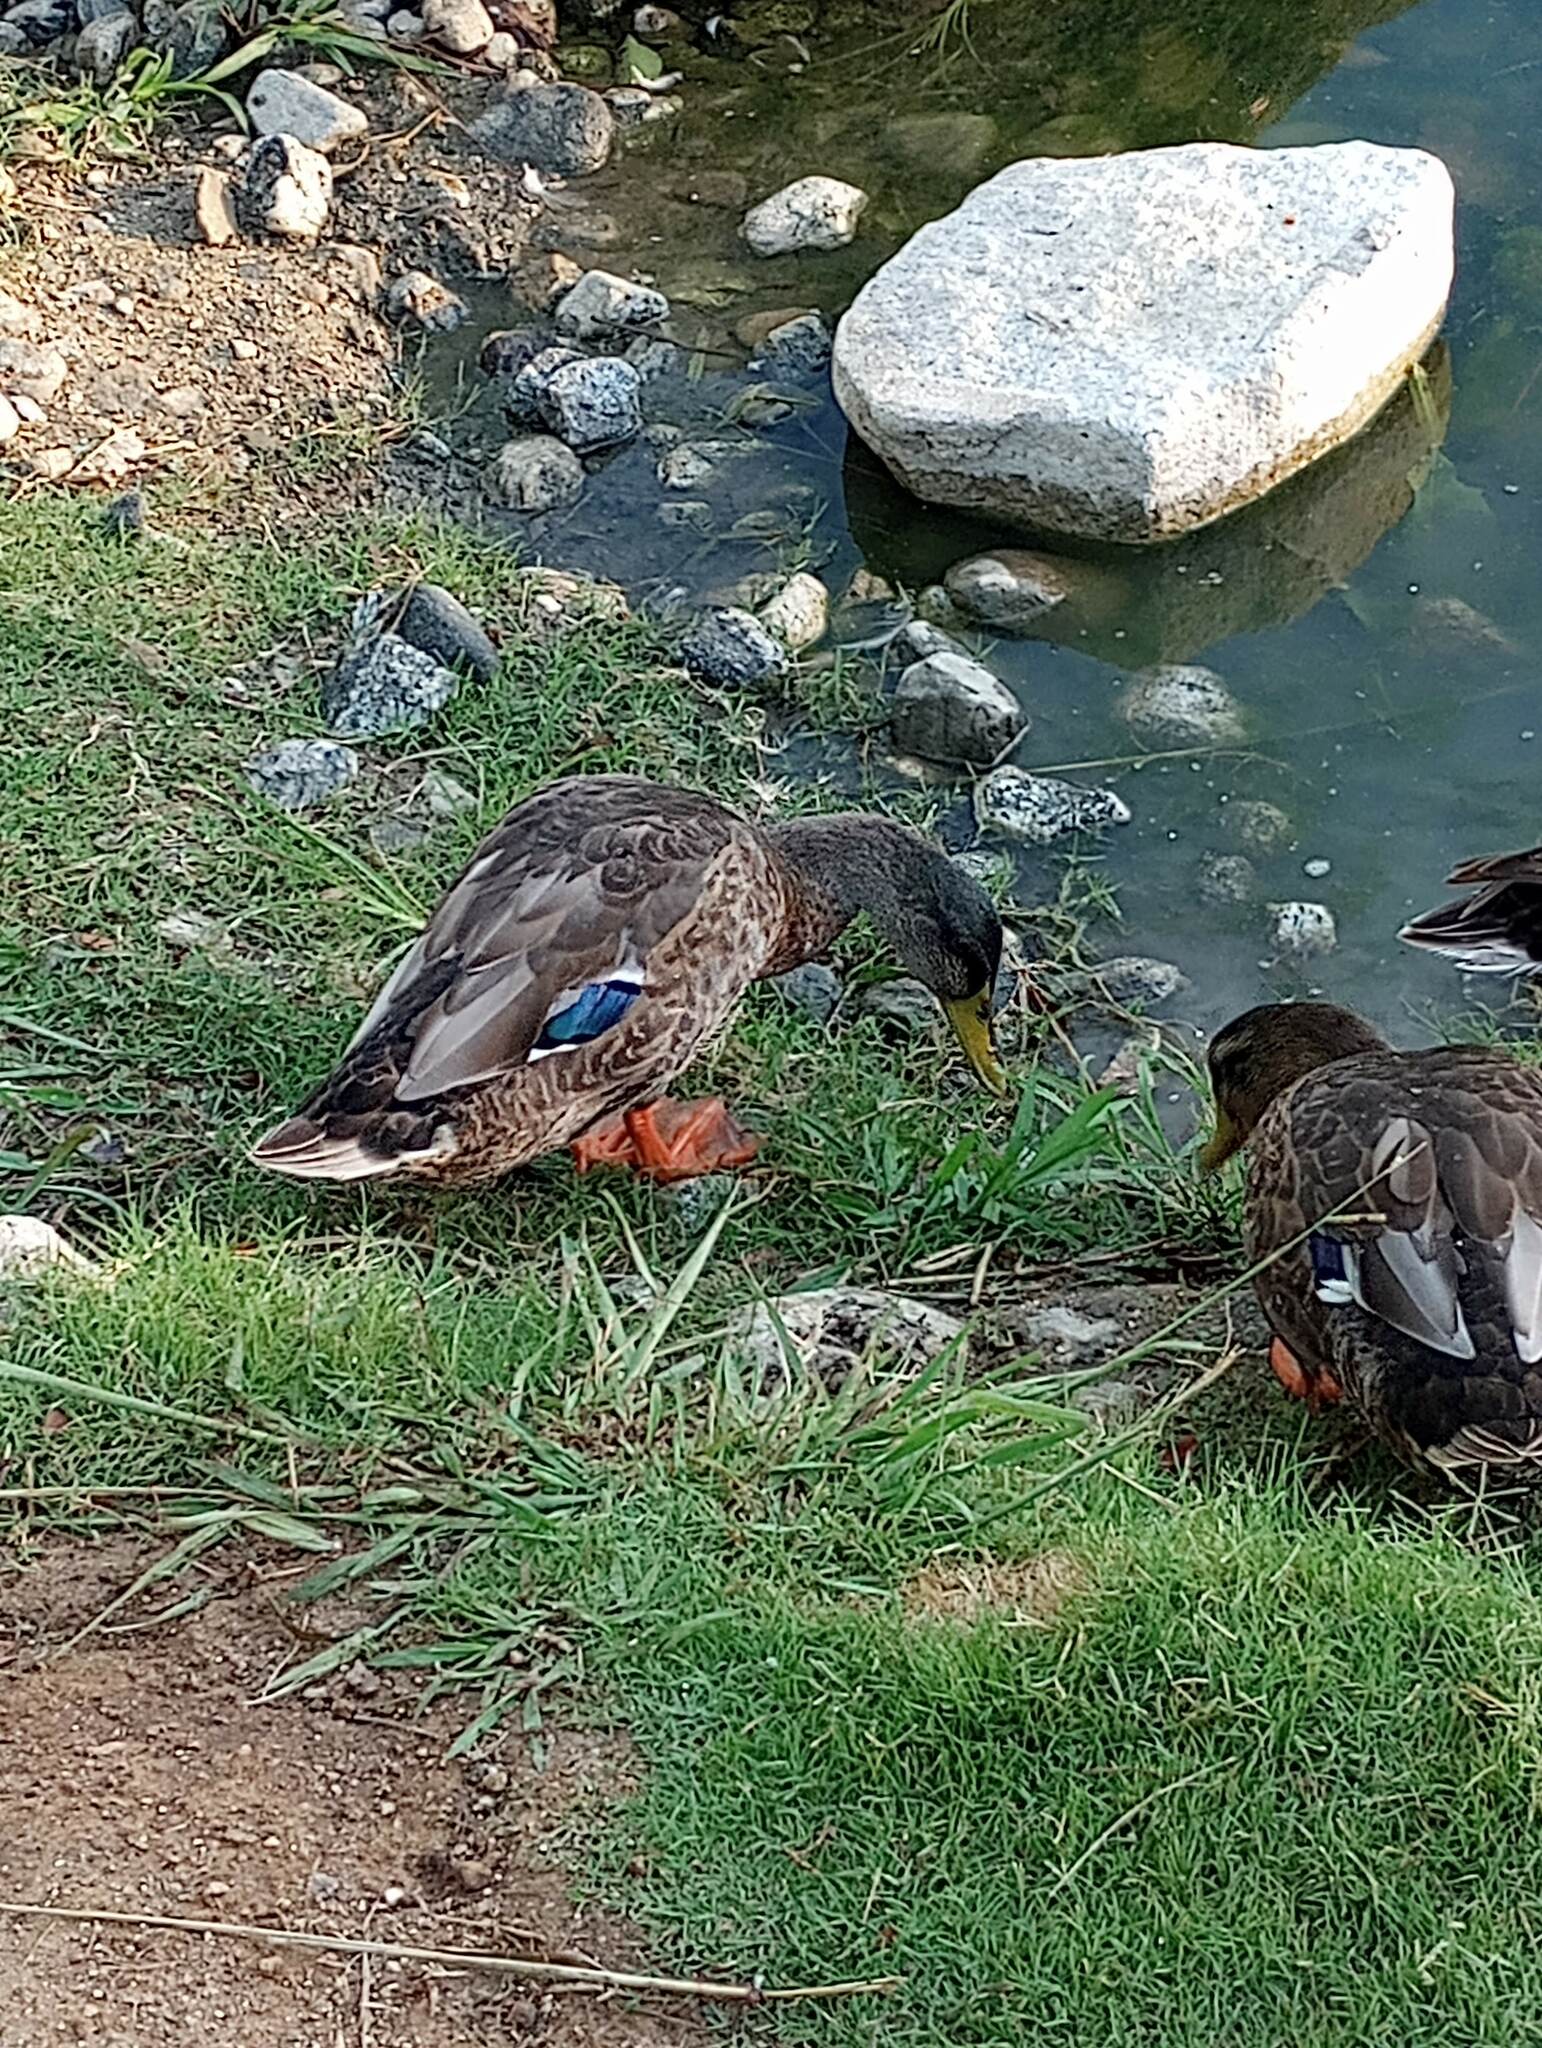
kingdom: Animalia
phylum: Chordata
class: Aves
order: Anseriformes
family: Anatidae
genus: Anas
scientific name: Anas platyrhynchos
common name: Mallard
